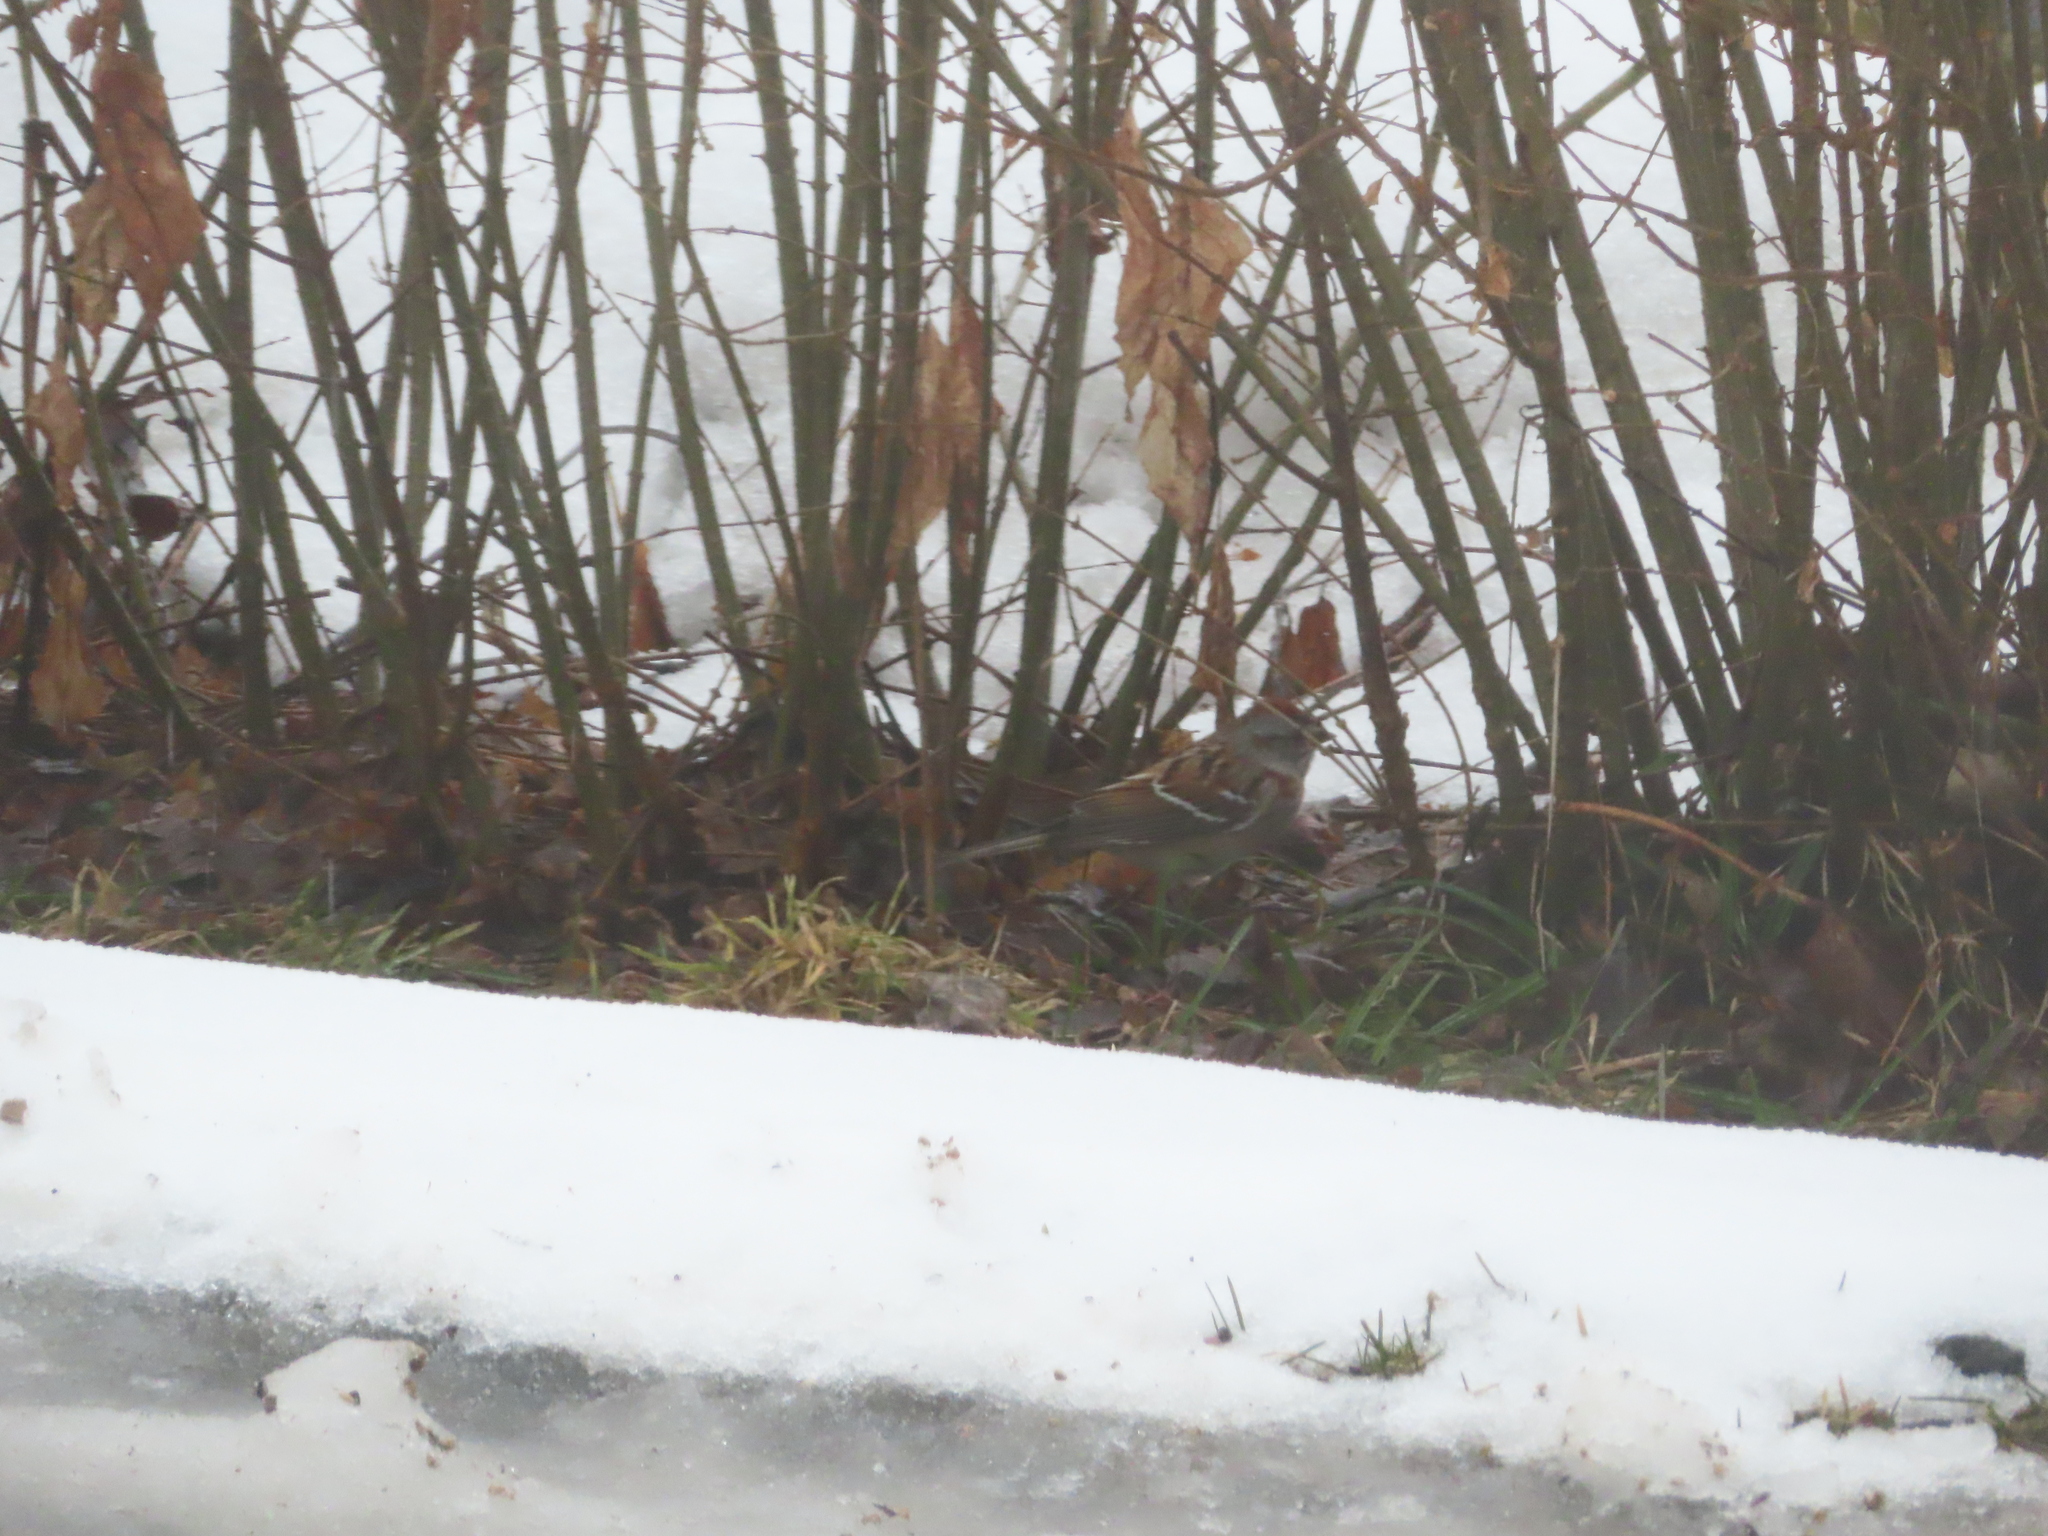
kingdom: Animalia
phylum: Chordata
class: Aves
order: Passeriformes
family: Passerellidae
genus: Spizelloides
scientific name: Spizelloides arborea
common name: American tree sparrow
